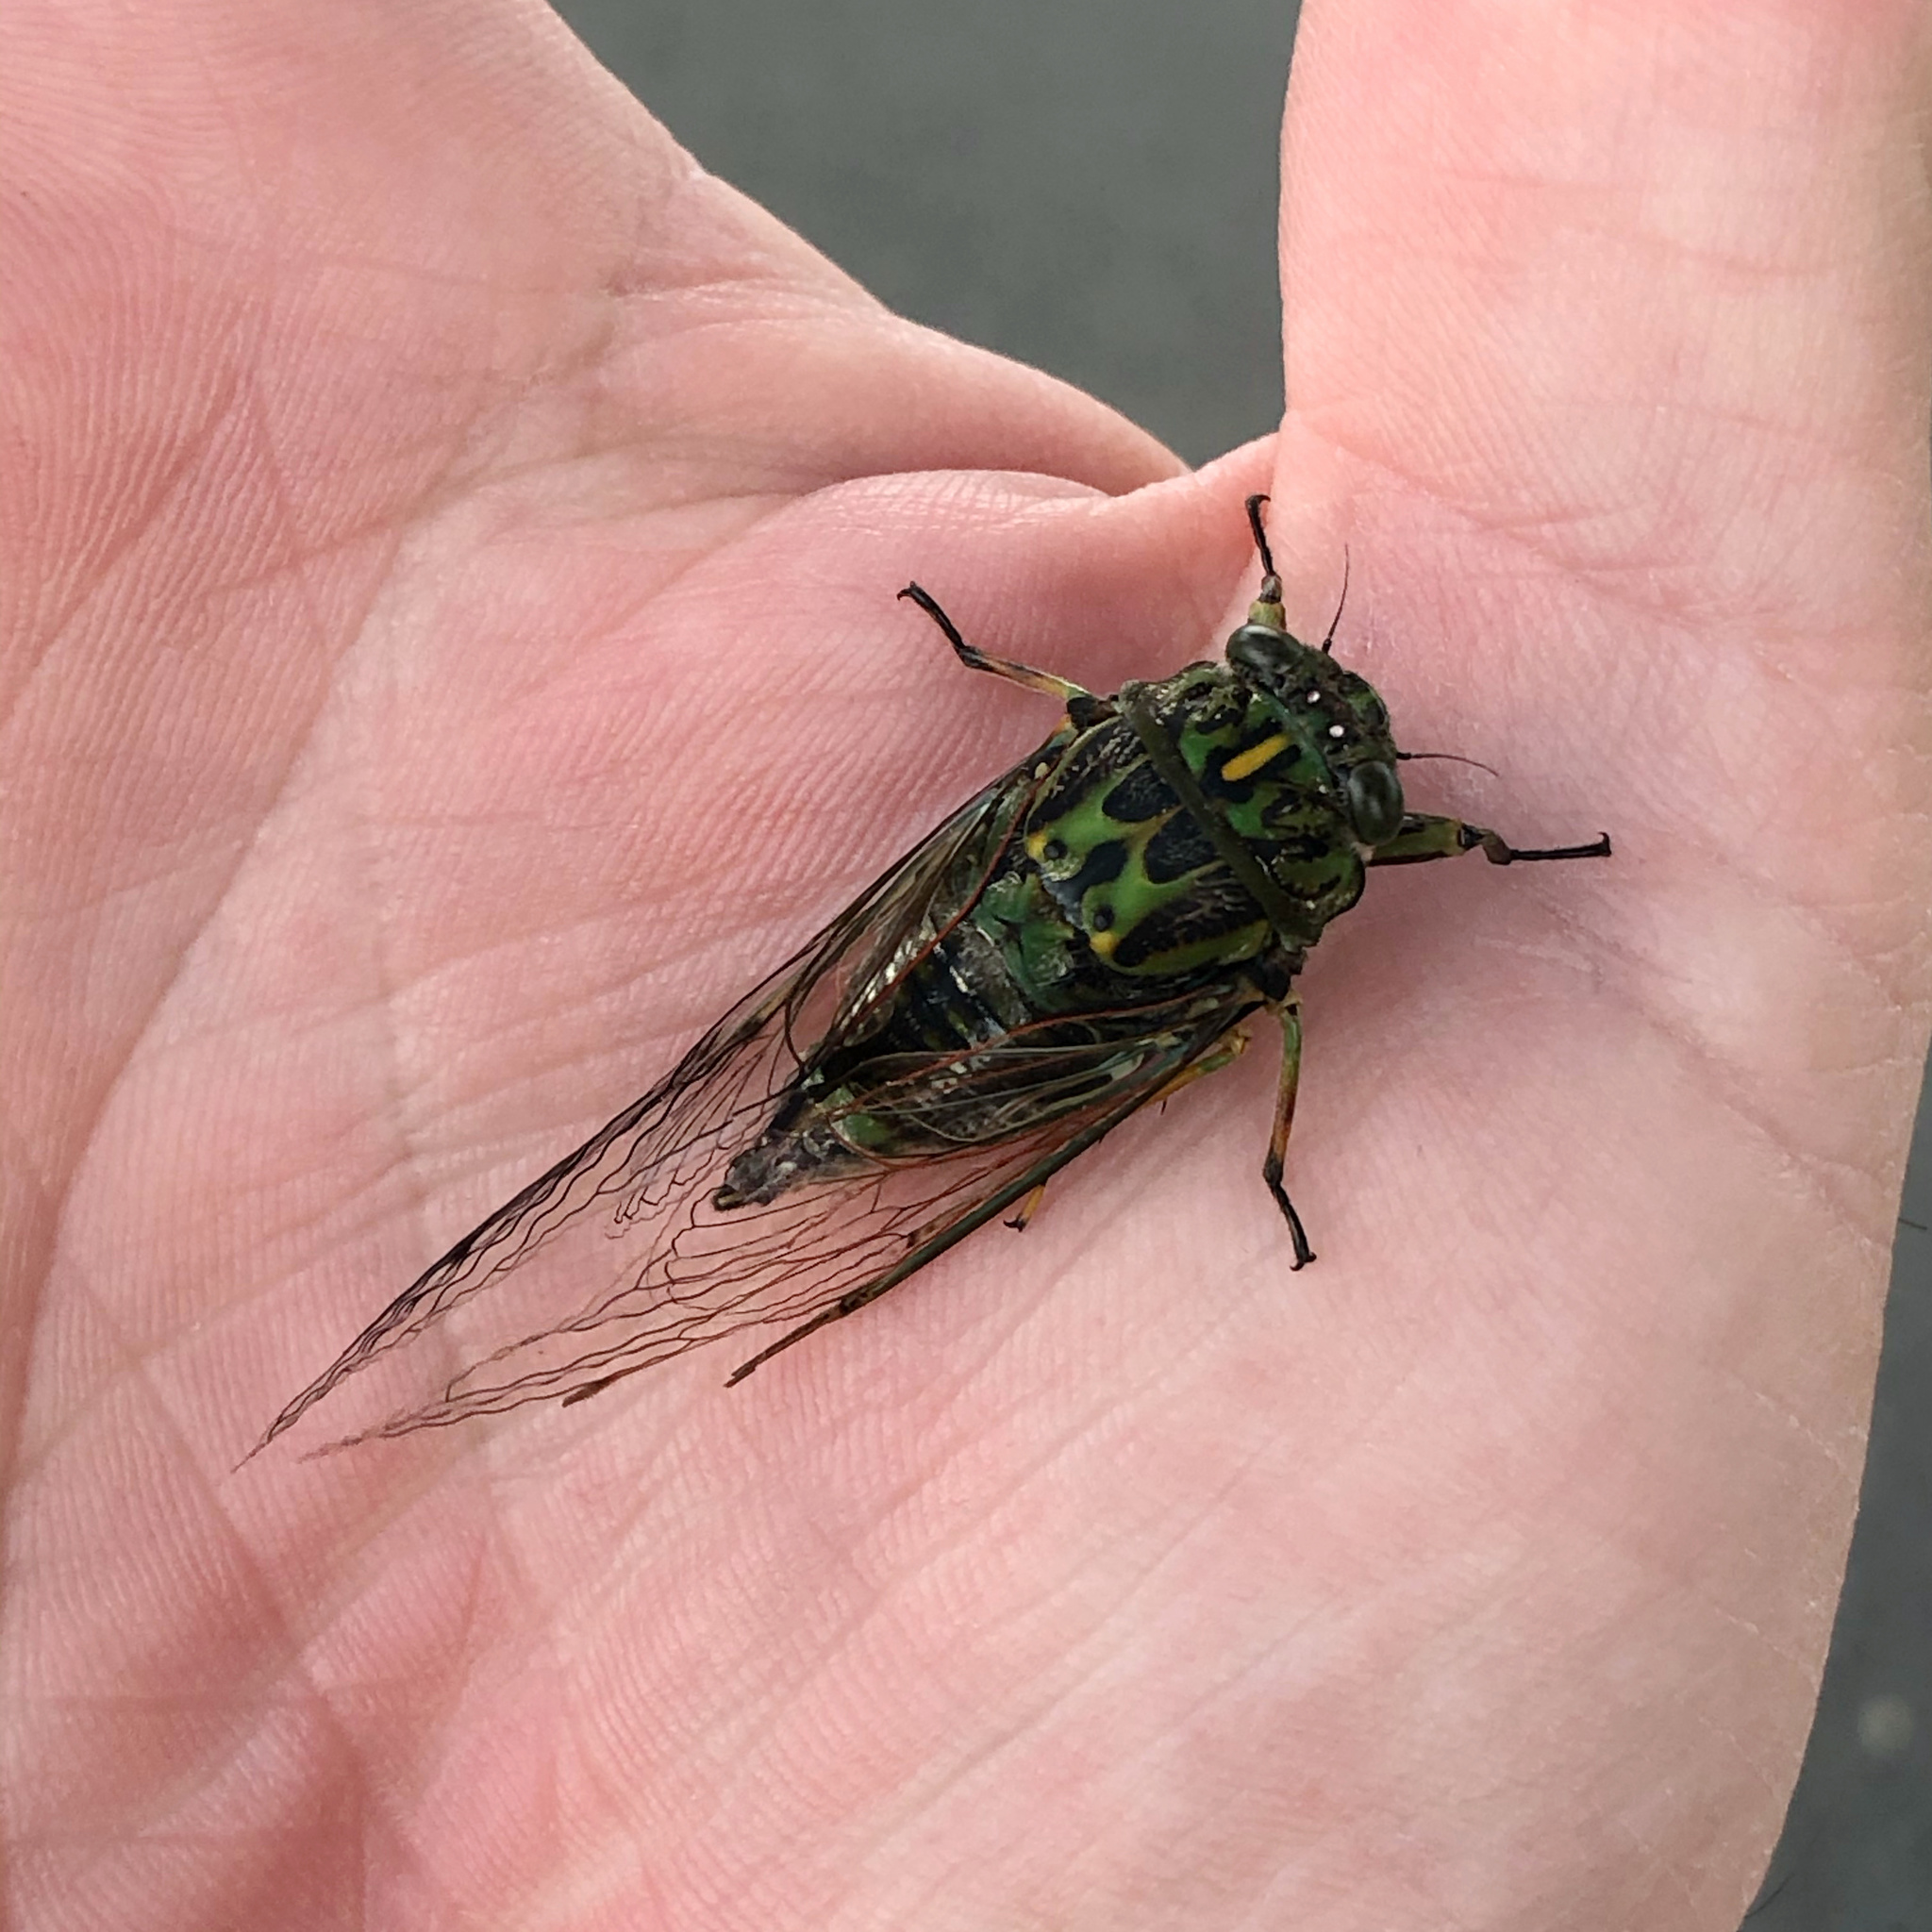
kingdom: Animalia
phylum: Arthropoda
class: Insecta
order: Hemiptera
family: Cicadidae
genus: Amphipsalta
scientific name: Amphipsalta zelandica
